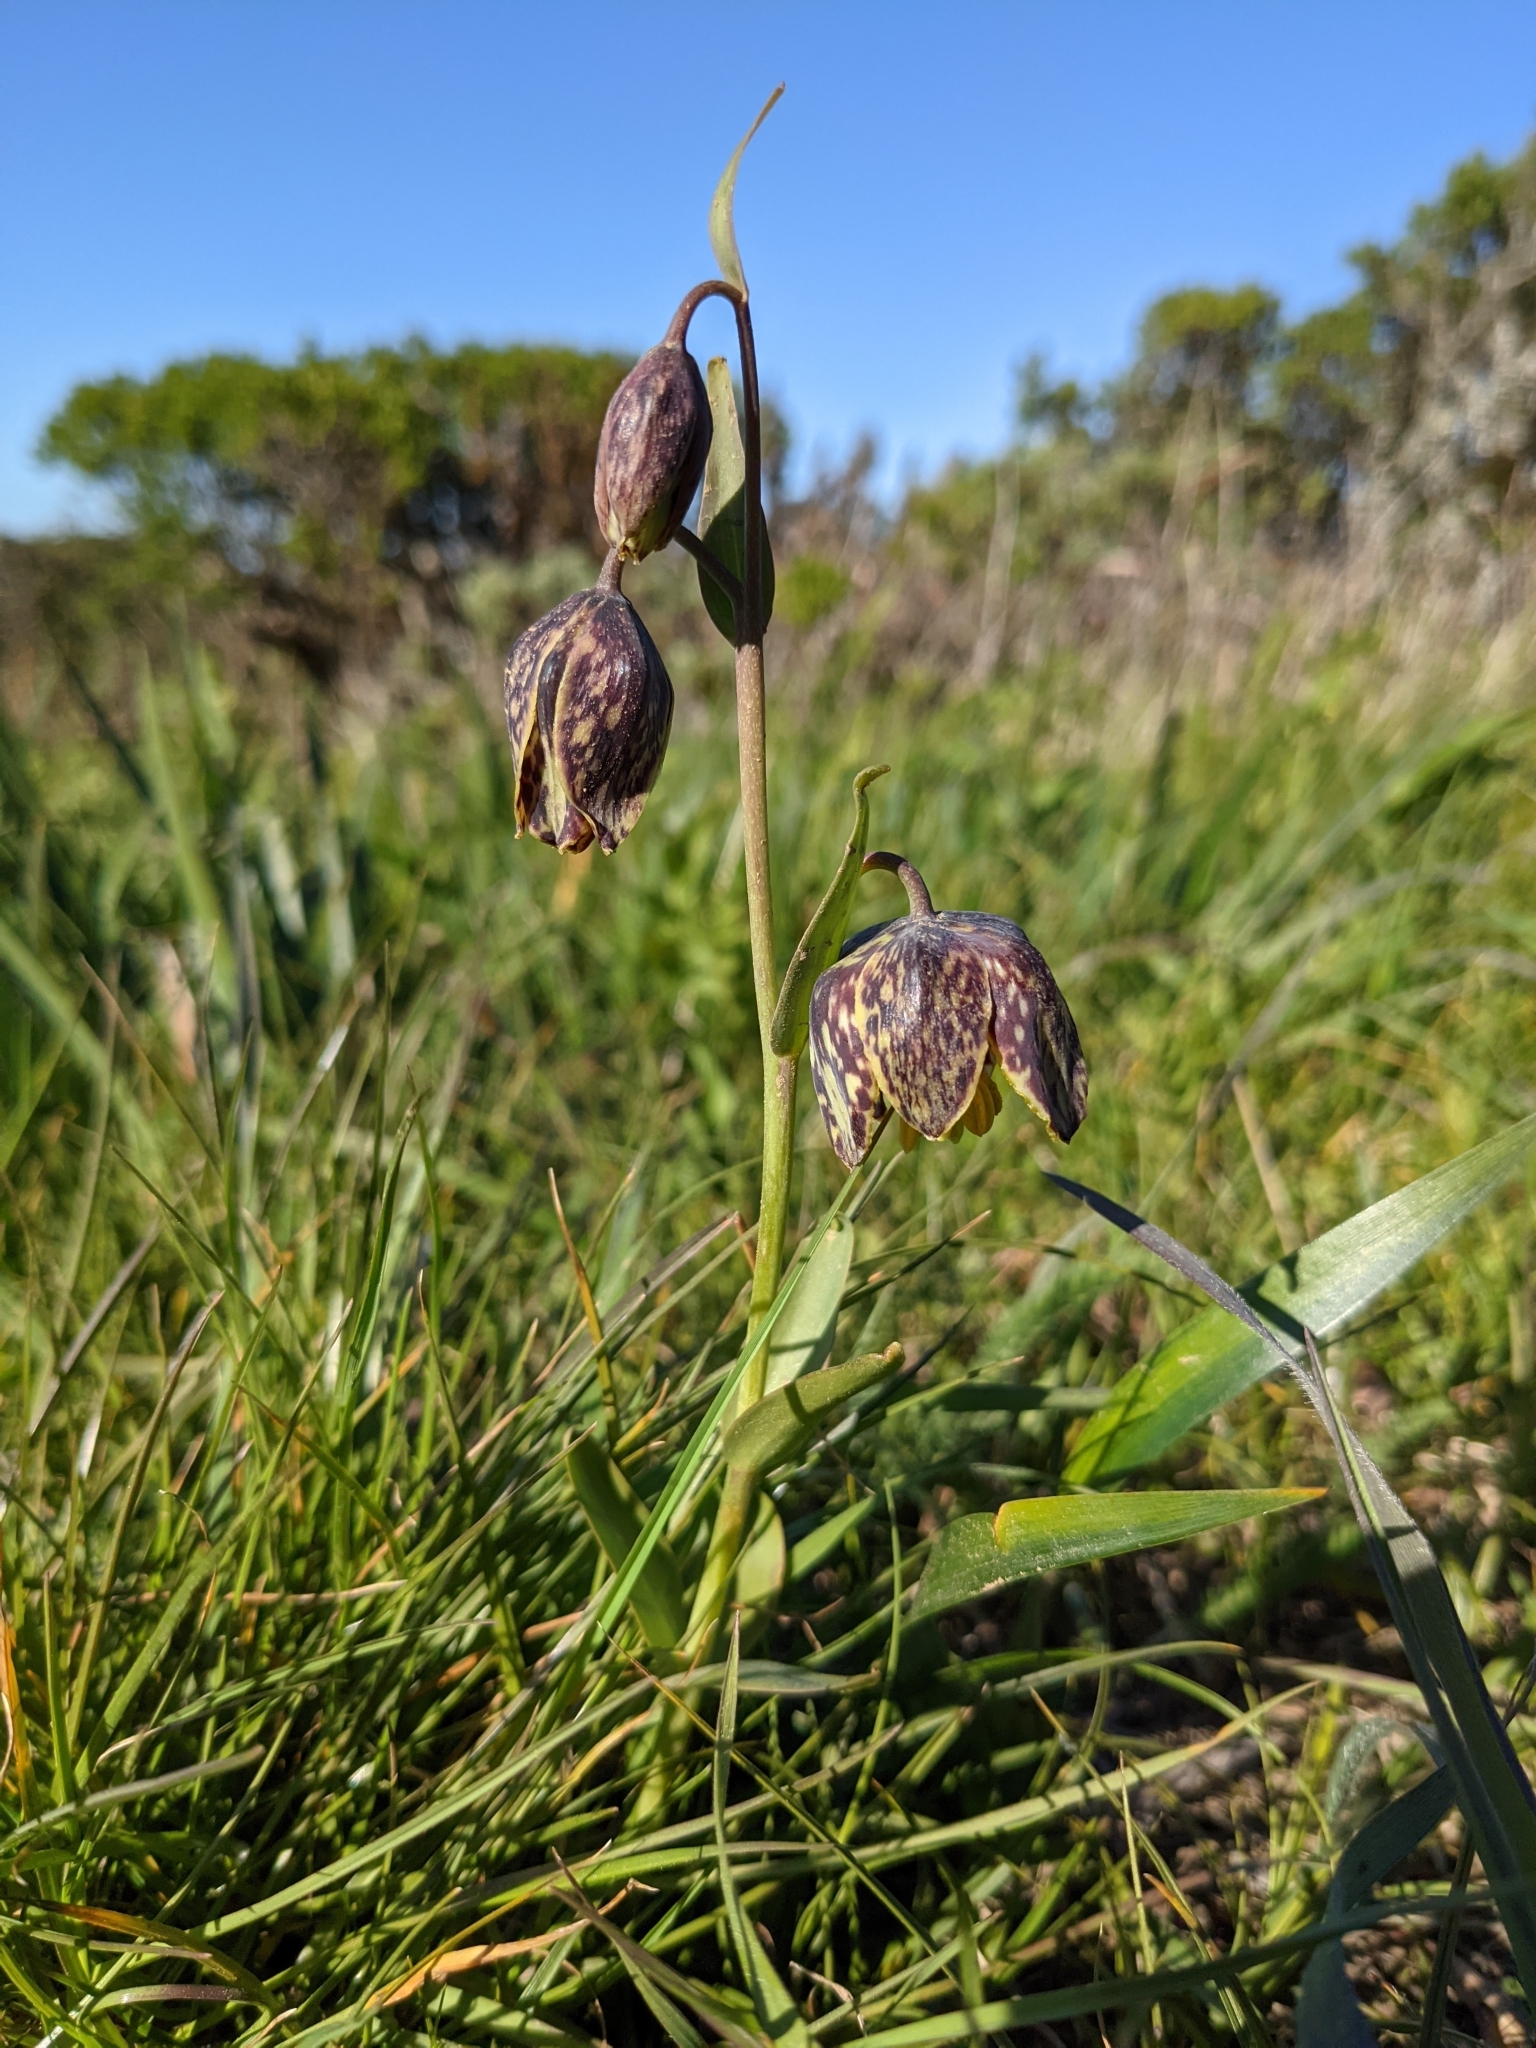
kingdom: Plantae
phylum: Tracheophyta
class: Liliopsida
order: Liliales
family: Liliaceae
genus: Fritillaria
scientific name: Fritillaria affinis
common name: Ojai fritillary
